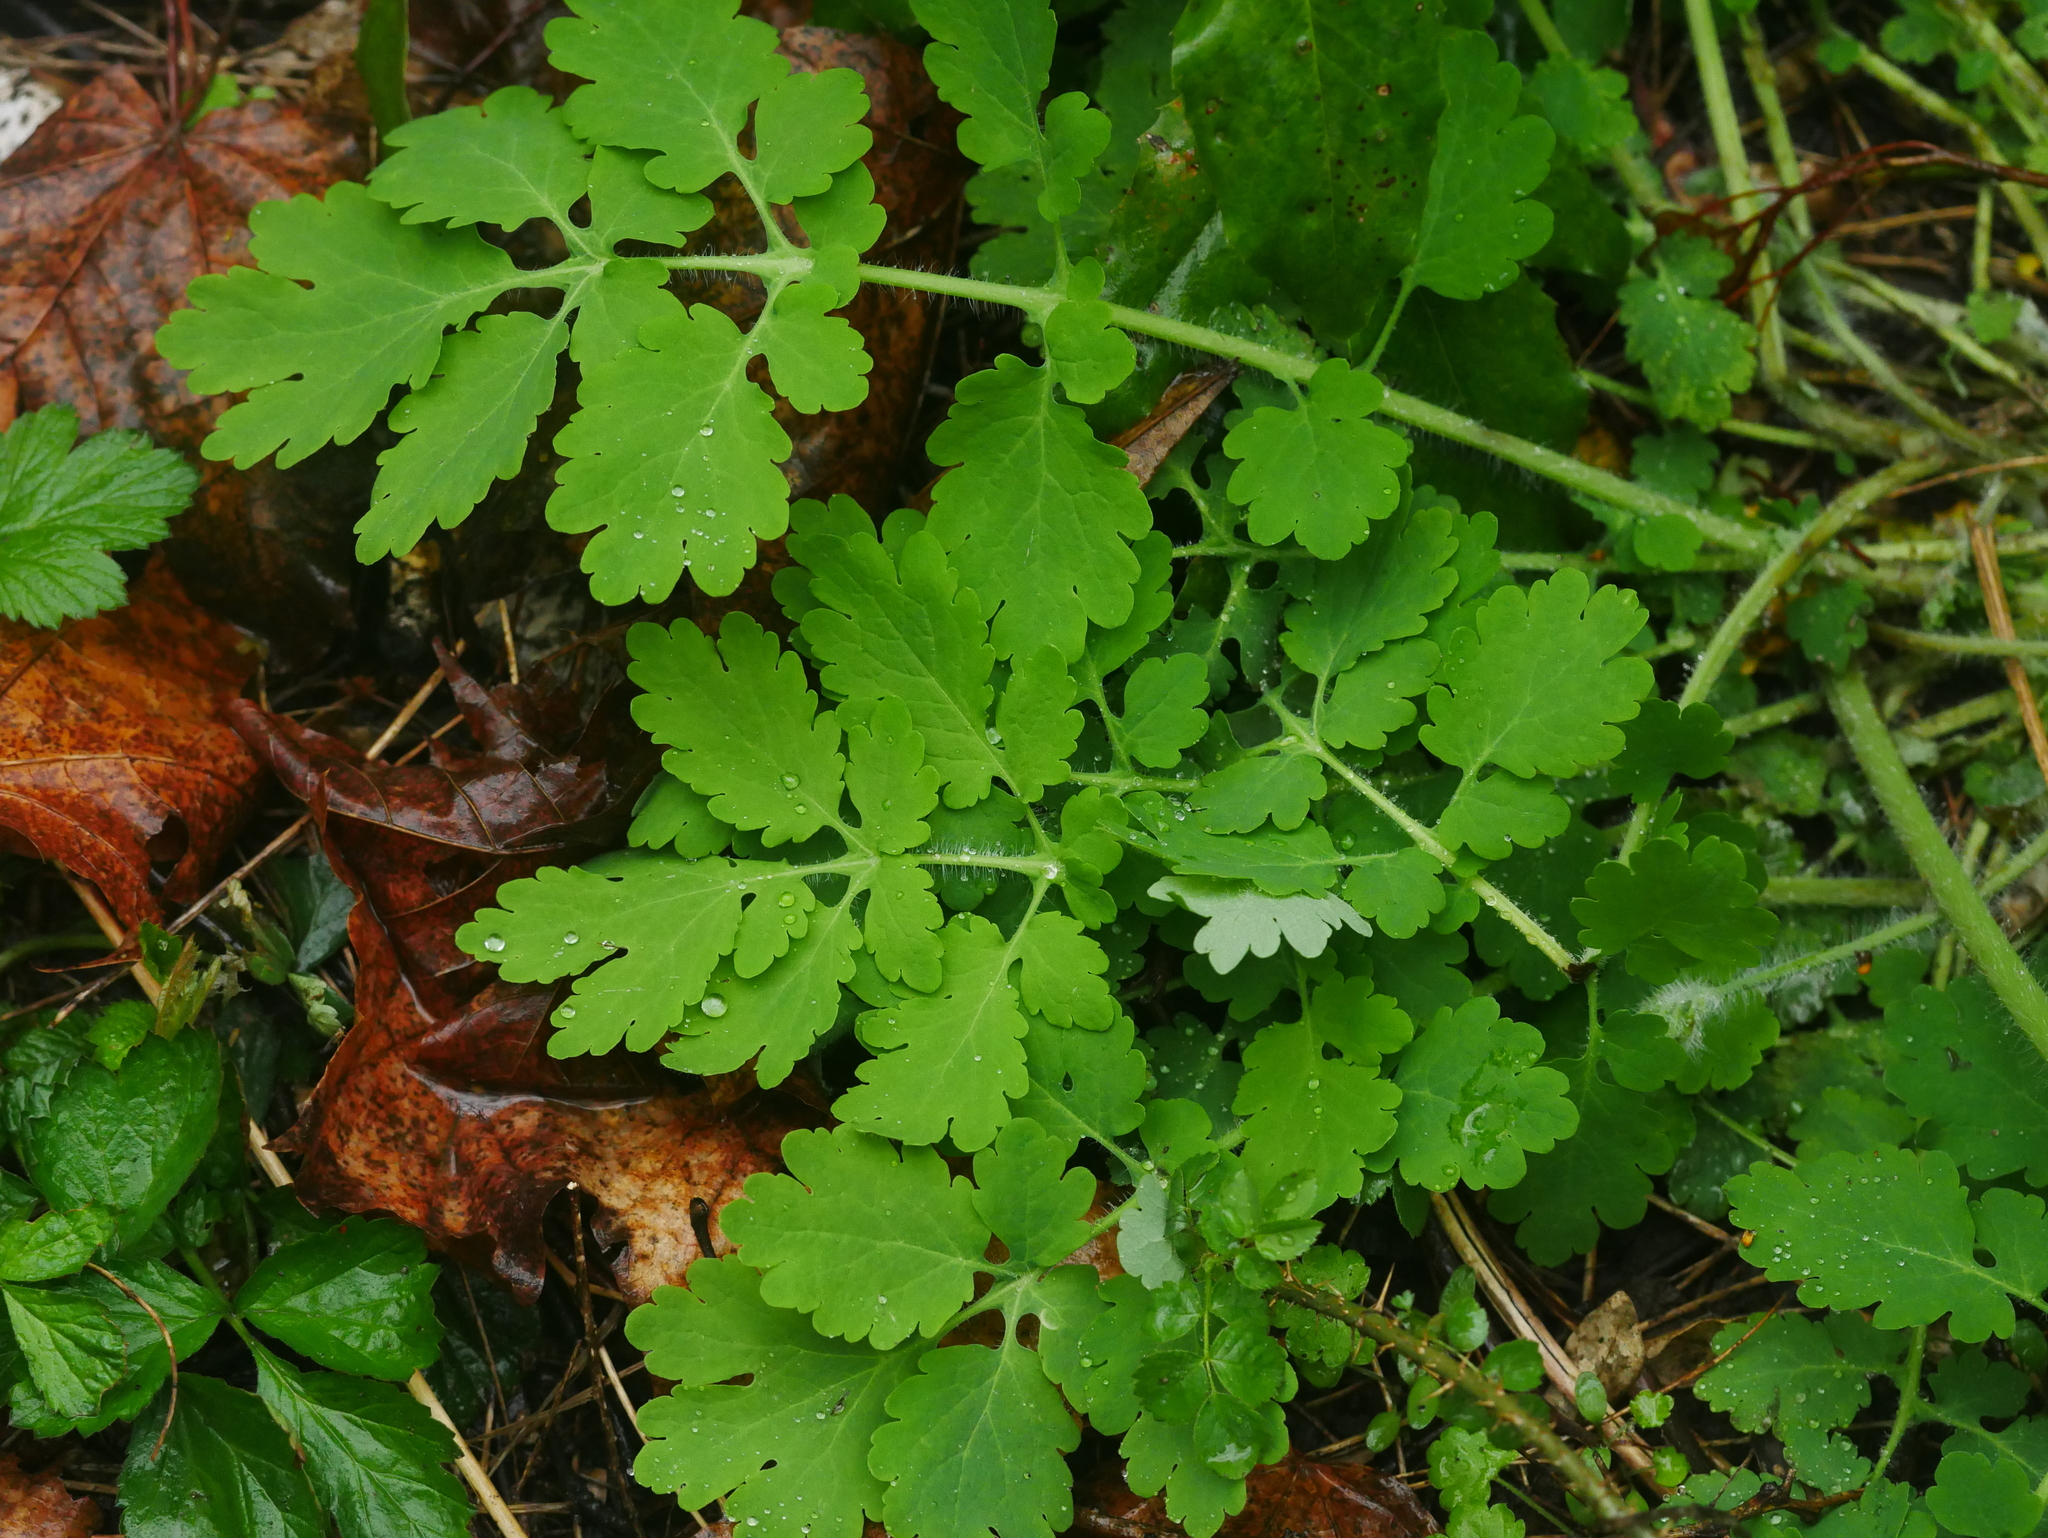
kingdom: Plantae
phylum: Tracheophyta
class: Magnoliopsida
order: Ranunculales
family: Papaveraceae
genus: Chelidonium
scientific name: Chelidonium majus
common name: Greater celandine
